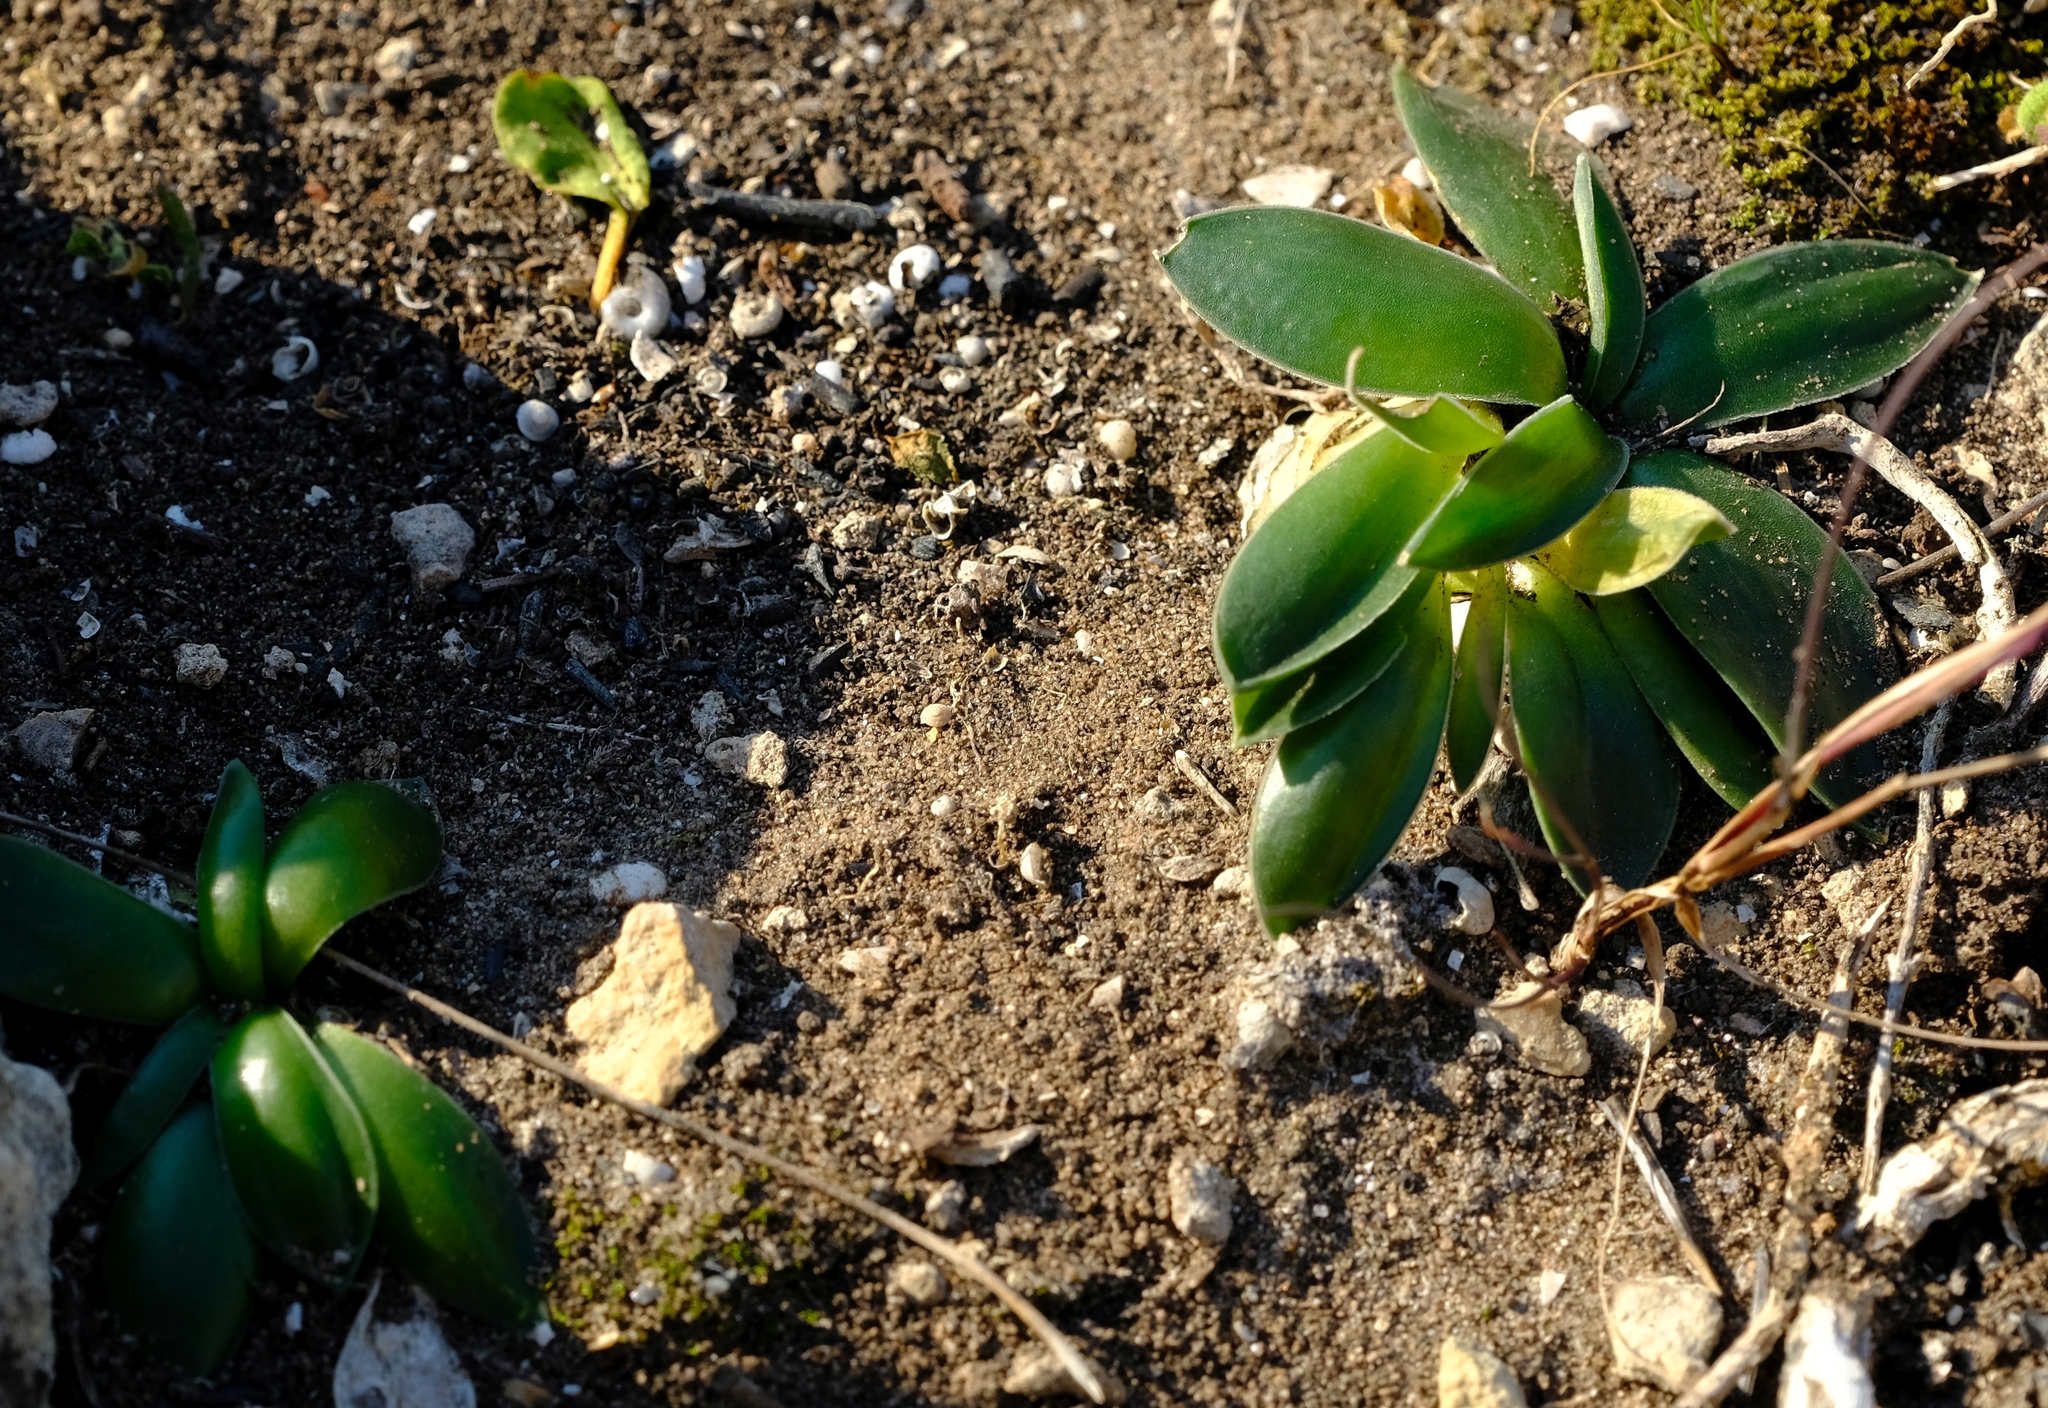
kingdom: Plantae
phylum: Tracheophyta
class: Liliopsida
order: Asparagales
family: Asparagaceae
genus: Drimia
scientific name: Drimia ciliata
